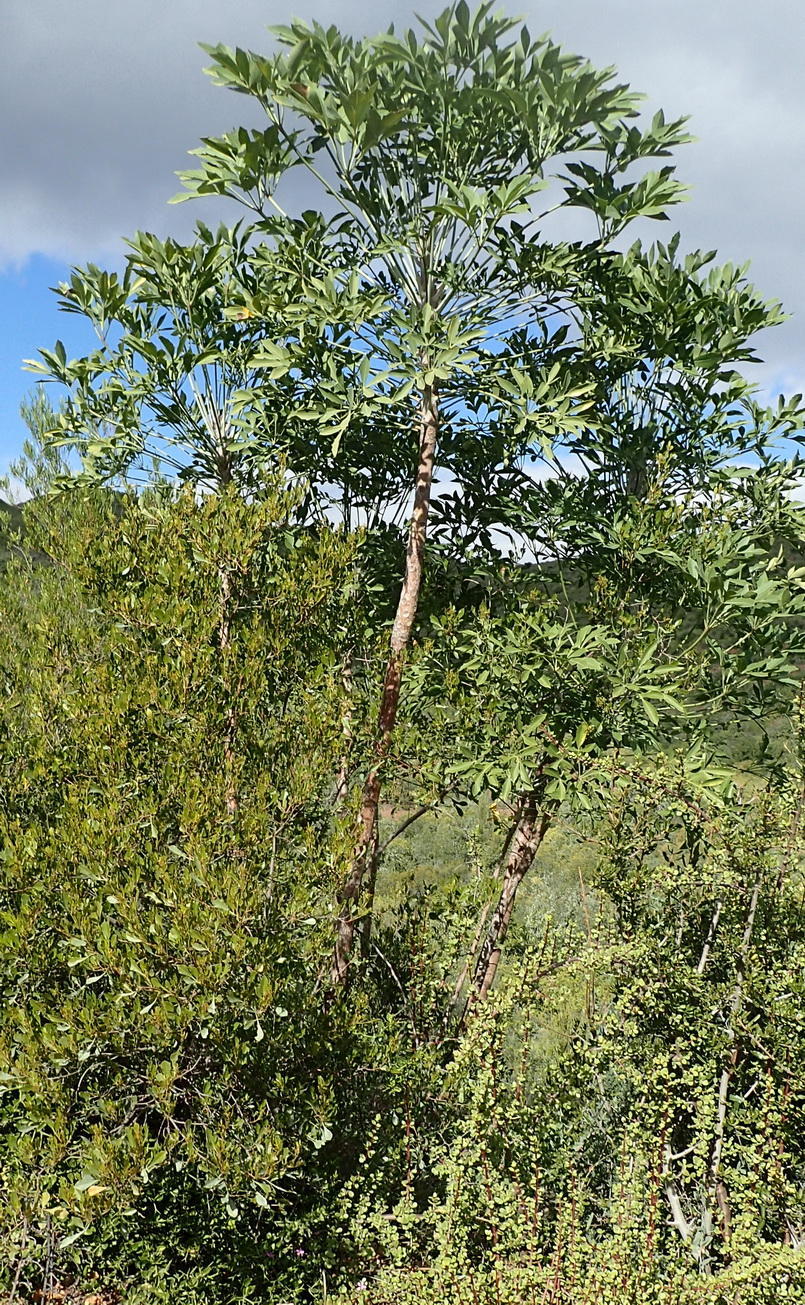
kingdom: Plantae
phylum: Tracheophyta
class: Magnoliopsida
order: Apiales
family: Araliaceae
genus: Cussonia
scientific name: Cussonia spicata
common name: Common cabbagetree
